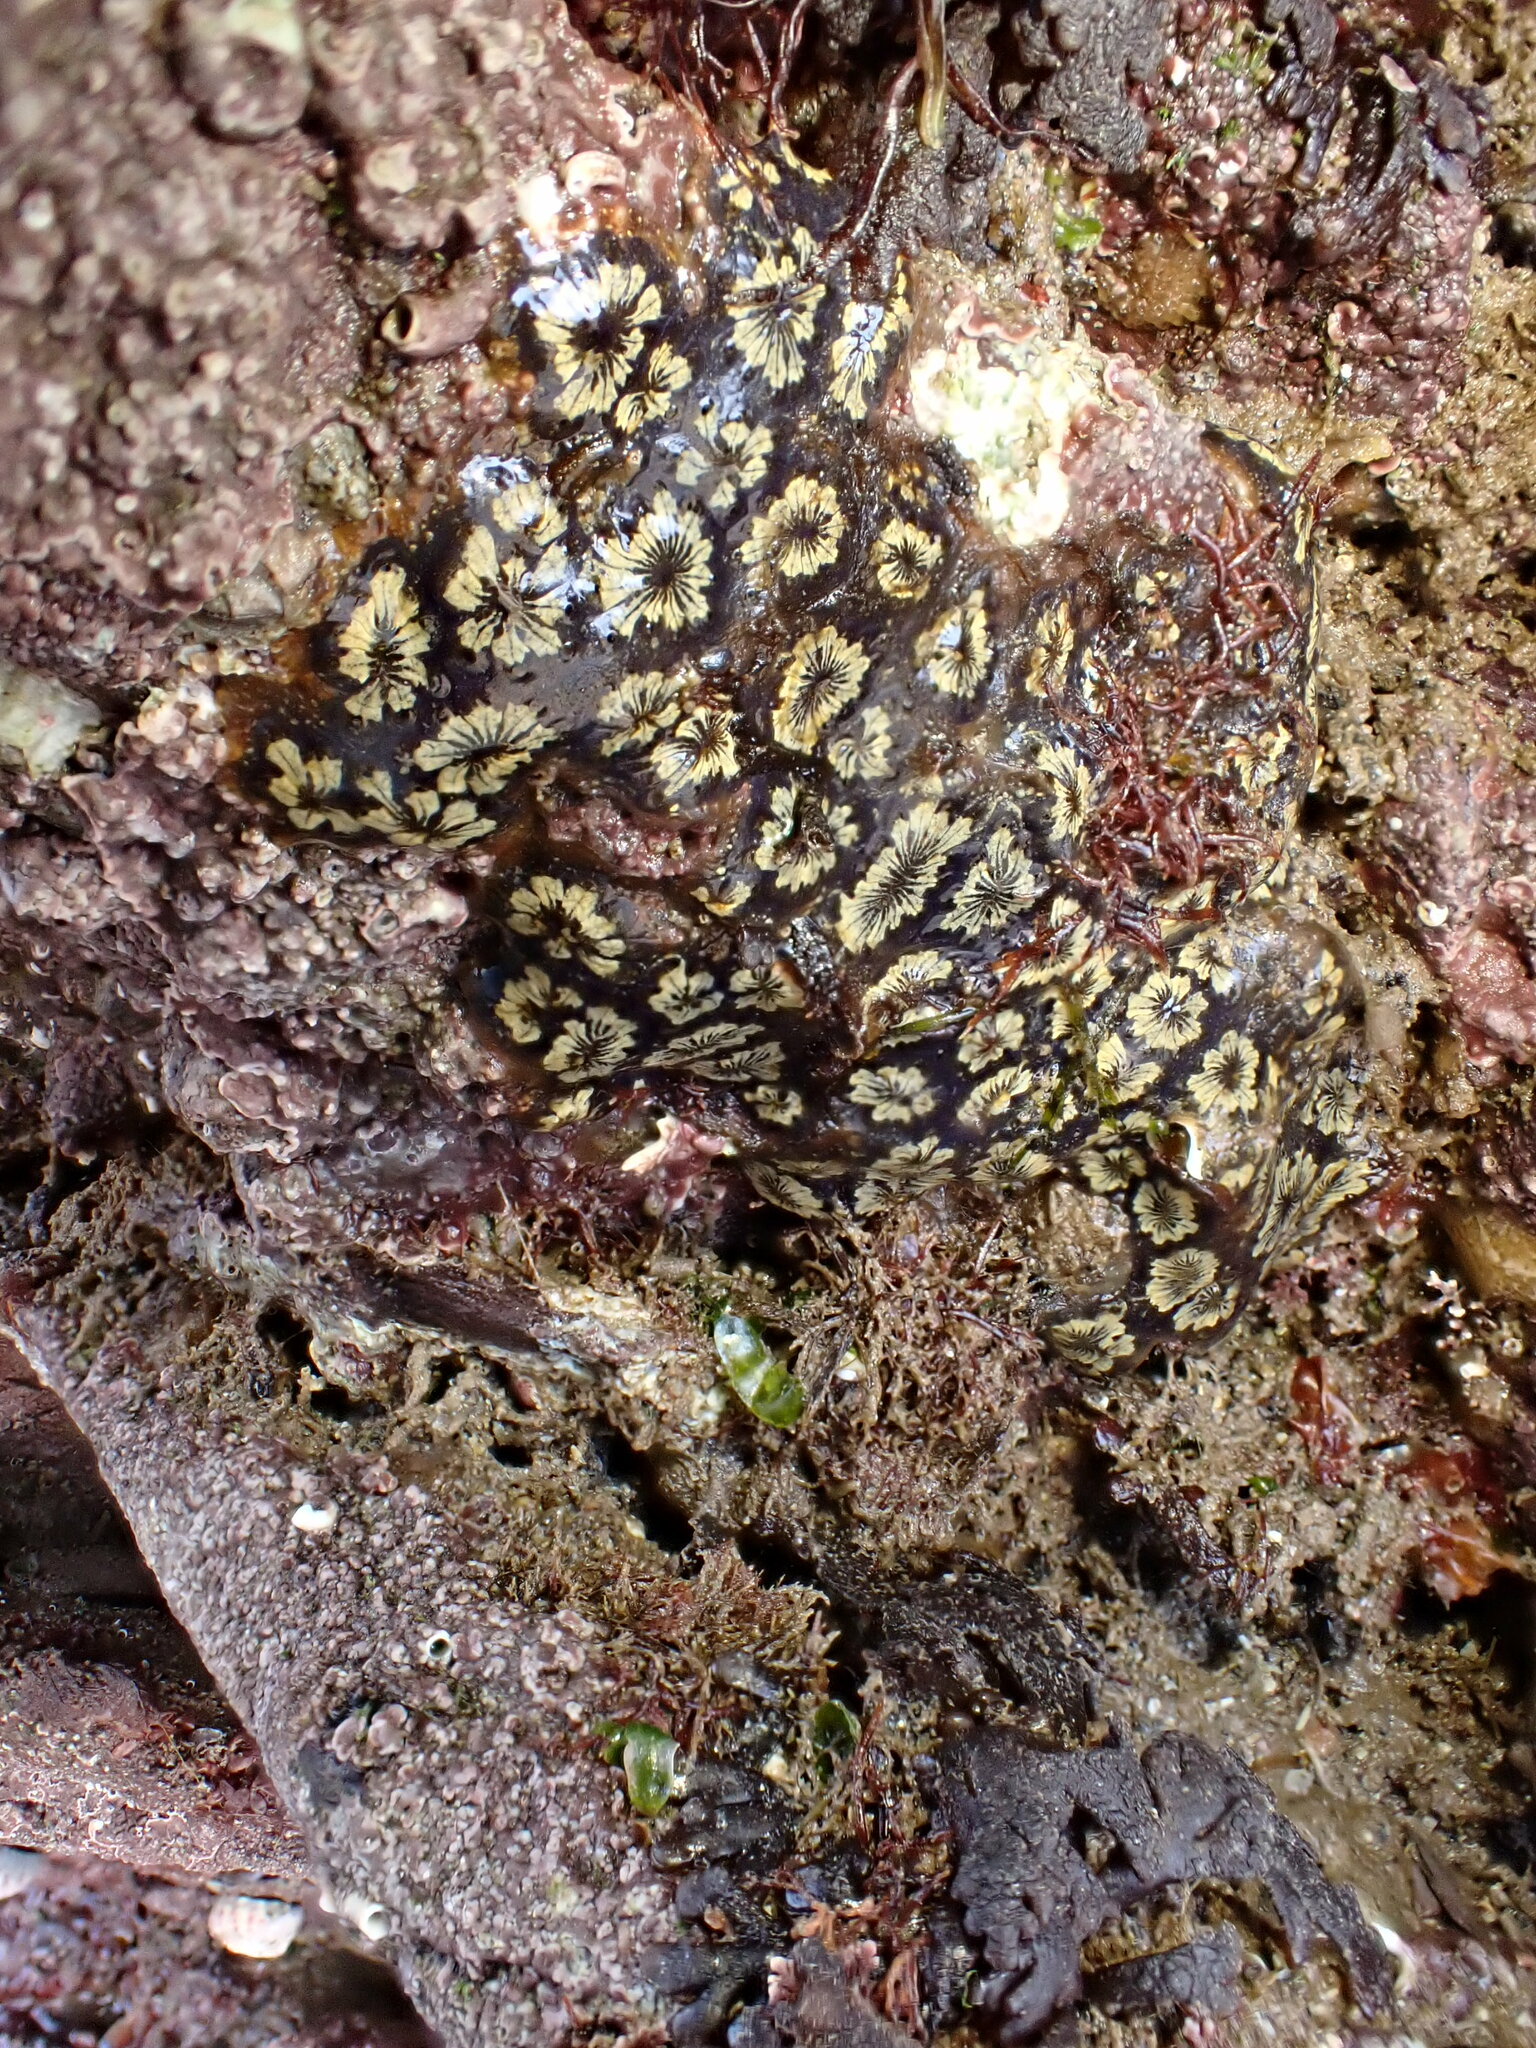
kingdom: Animalia
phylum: Chordata
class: Ascidiacea
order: Stolidobranchia
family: Styelidae
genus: Botryllus
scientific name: Botryllus schlosseri
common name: Golden star tunicate
